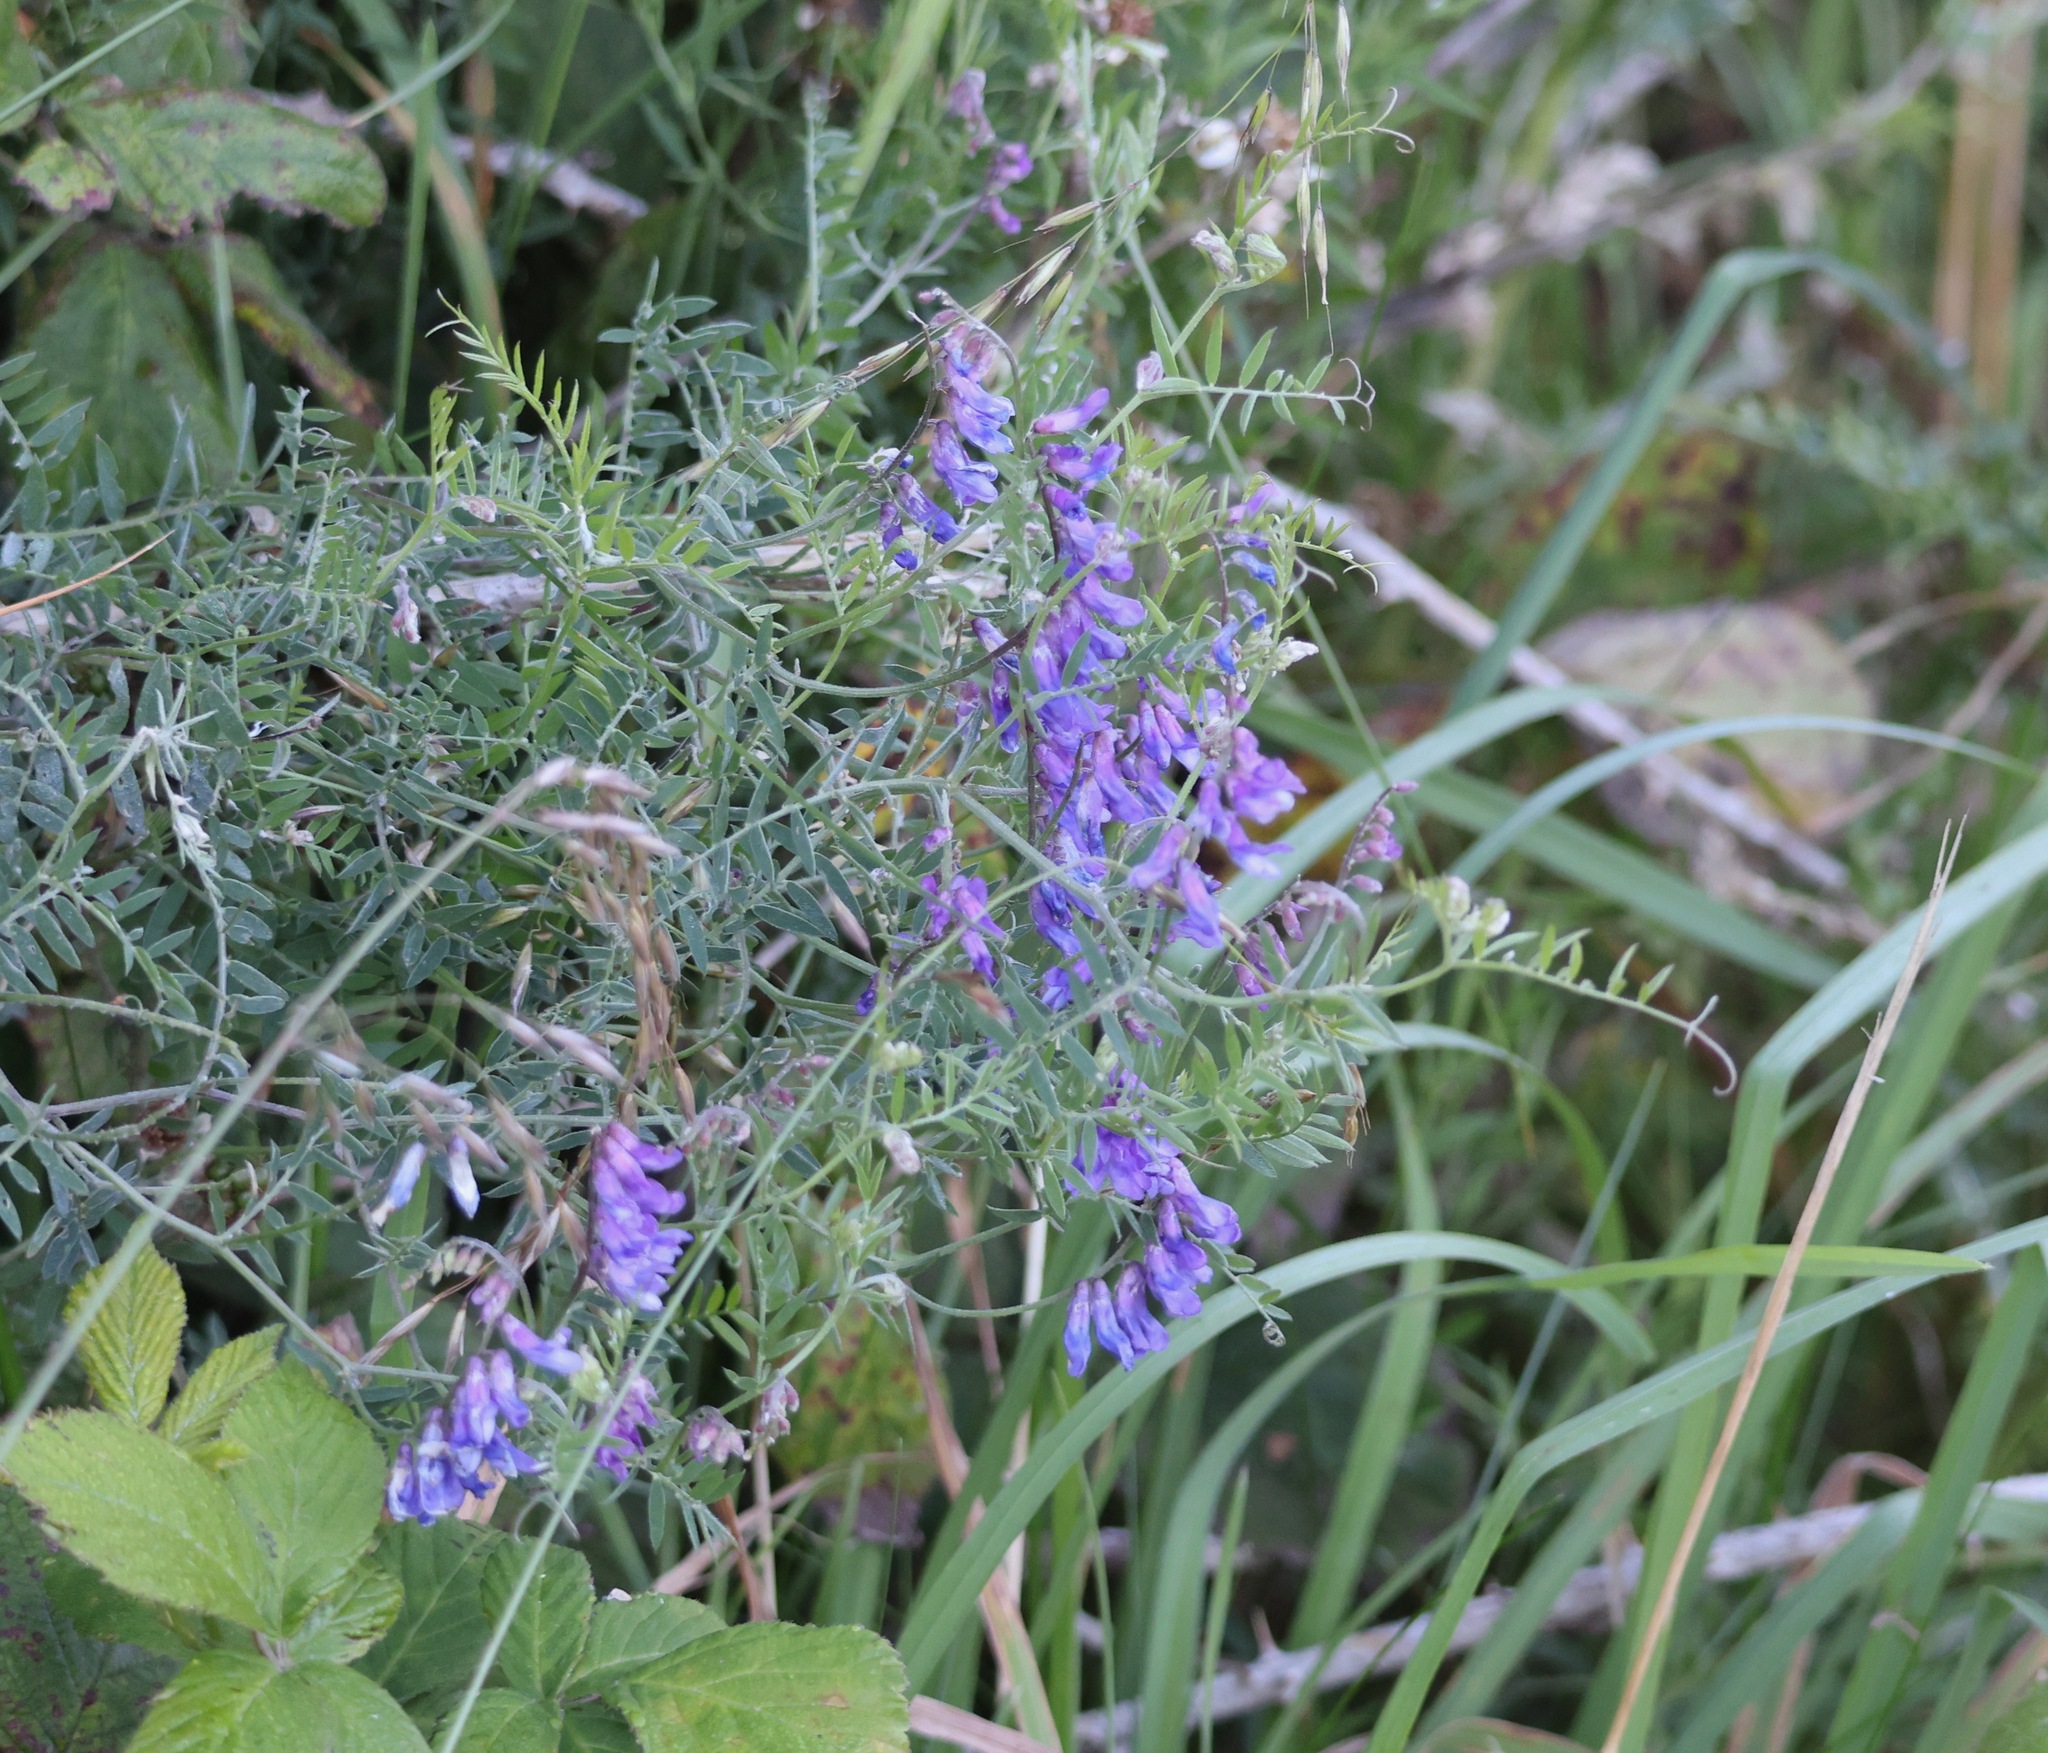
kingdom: Plantae
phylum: Tracheophyta
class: Magnoliopsida
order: Fabales
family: Fabaceae
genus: Vicia
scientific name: Vicia cracca
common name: Bird vetch
